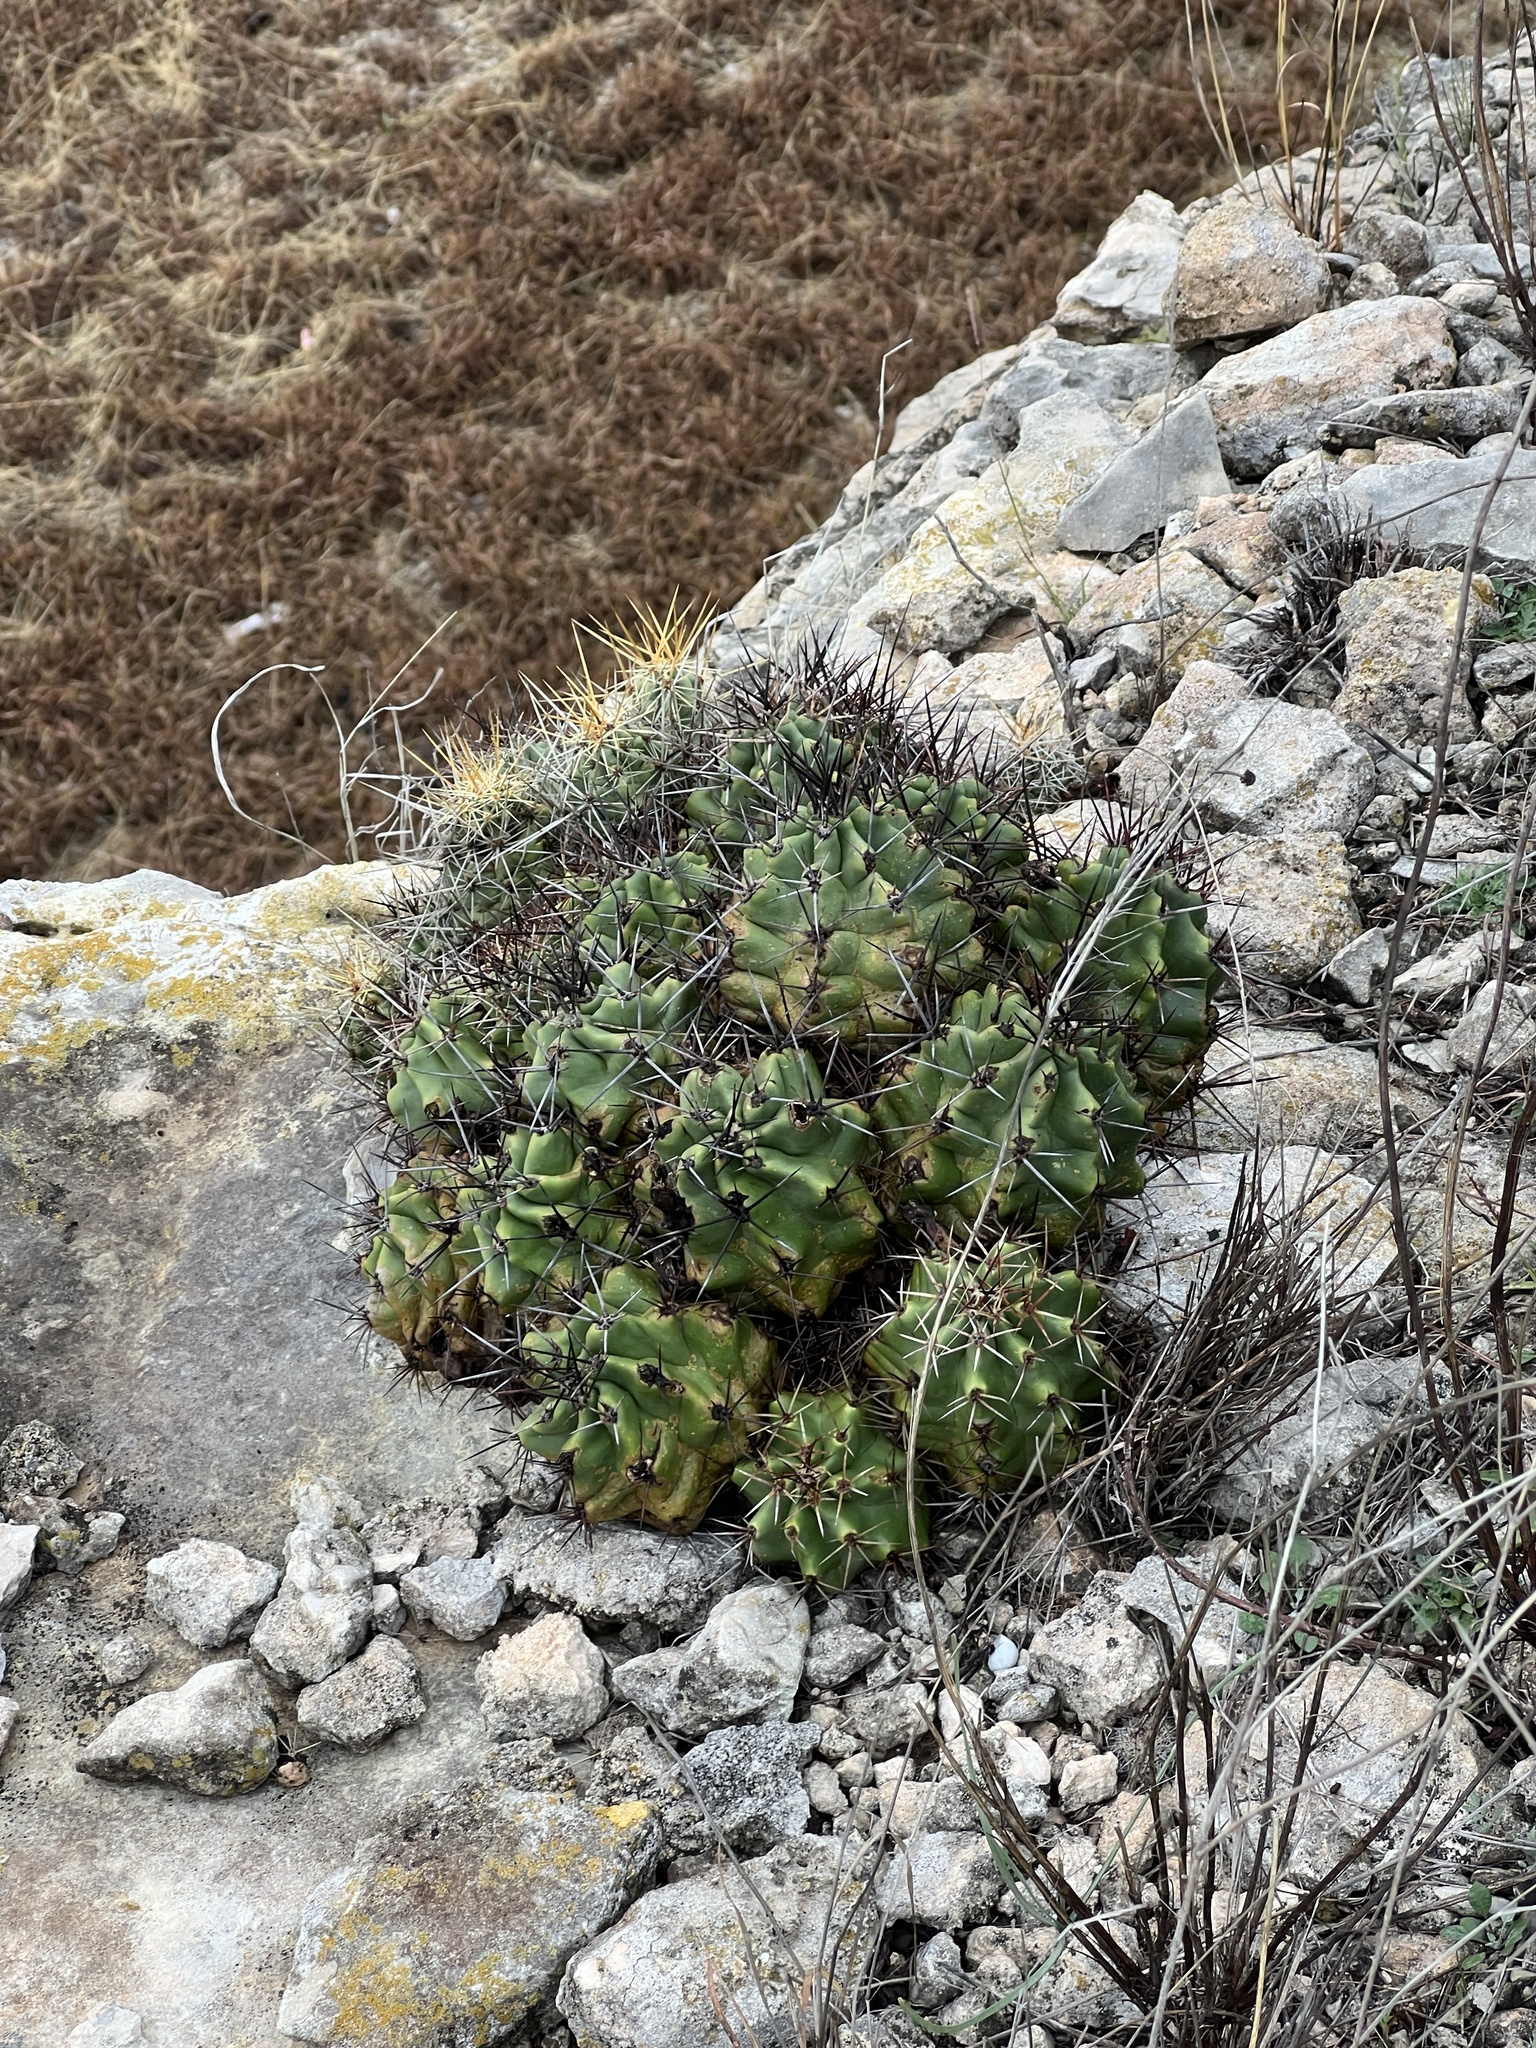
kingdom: Plantae
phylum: Tracheophyta
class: Magnoliopsida
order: Caryophyllales
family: Cactaceae
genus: Echinocereus
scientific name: Echinocereus coccineus
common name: Scarlet hedgehog cactus
